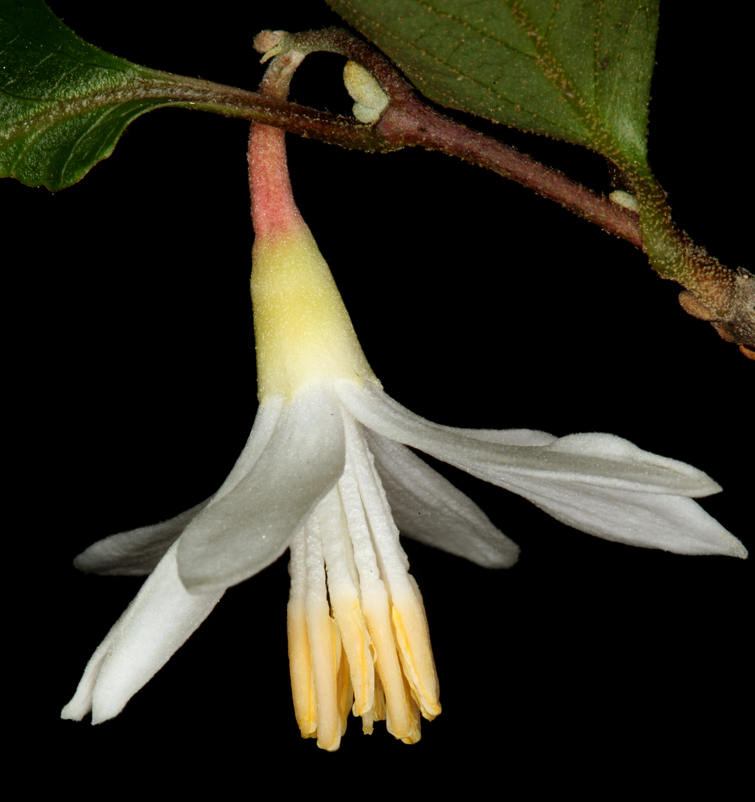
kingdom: Plantae
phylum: Tracheophyta
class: Magnoliopsida
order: Ericales
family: Styracaceae
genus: Styrax
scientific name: Styrax redivivus
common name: California styrax
